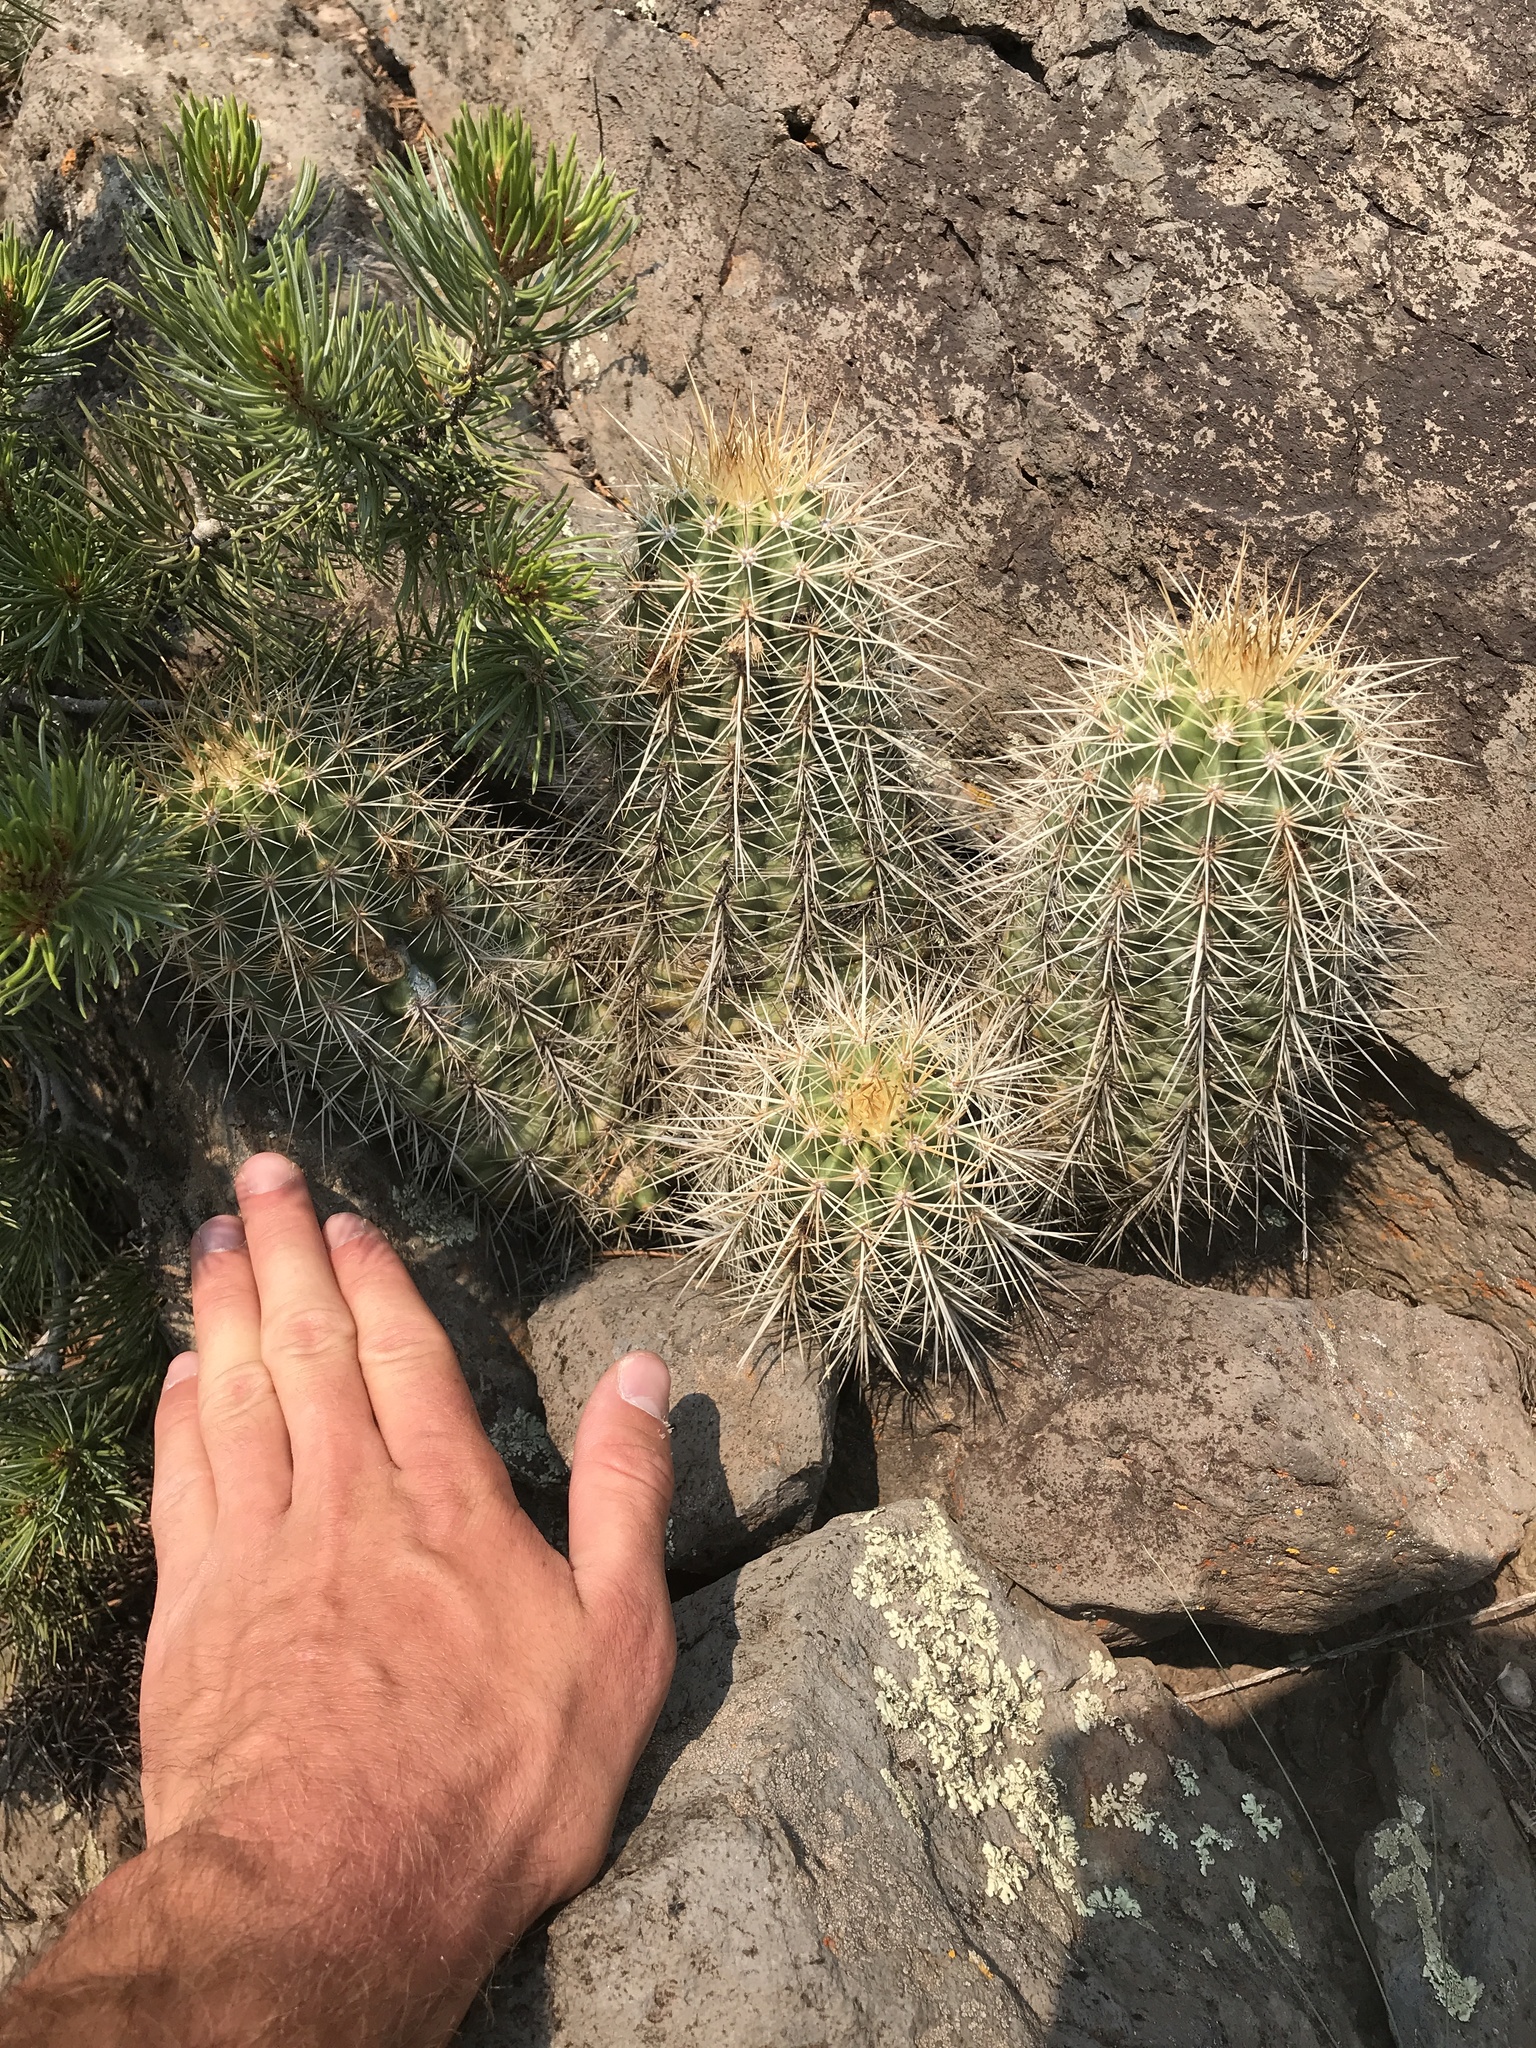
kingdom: Plantae
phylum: Tracheophyta
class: Magnoliopsida
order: Caryophyllales
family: Cactaceae
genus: Echinocereus
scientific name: Echinocereus coccineus
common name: Scarlet hedgehog cactus
